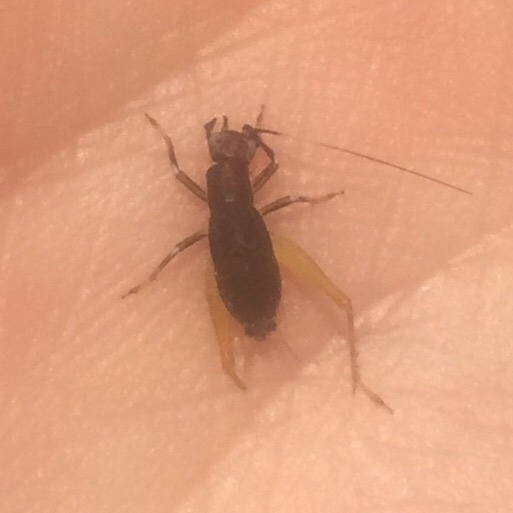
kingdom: Animalia
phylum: Arthropoda
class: Insecta
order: Orthoptera
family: Trigonidiidae
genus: Phyllopalpus
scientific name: Phyllopalpus pulchellus
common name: Handsome trig
